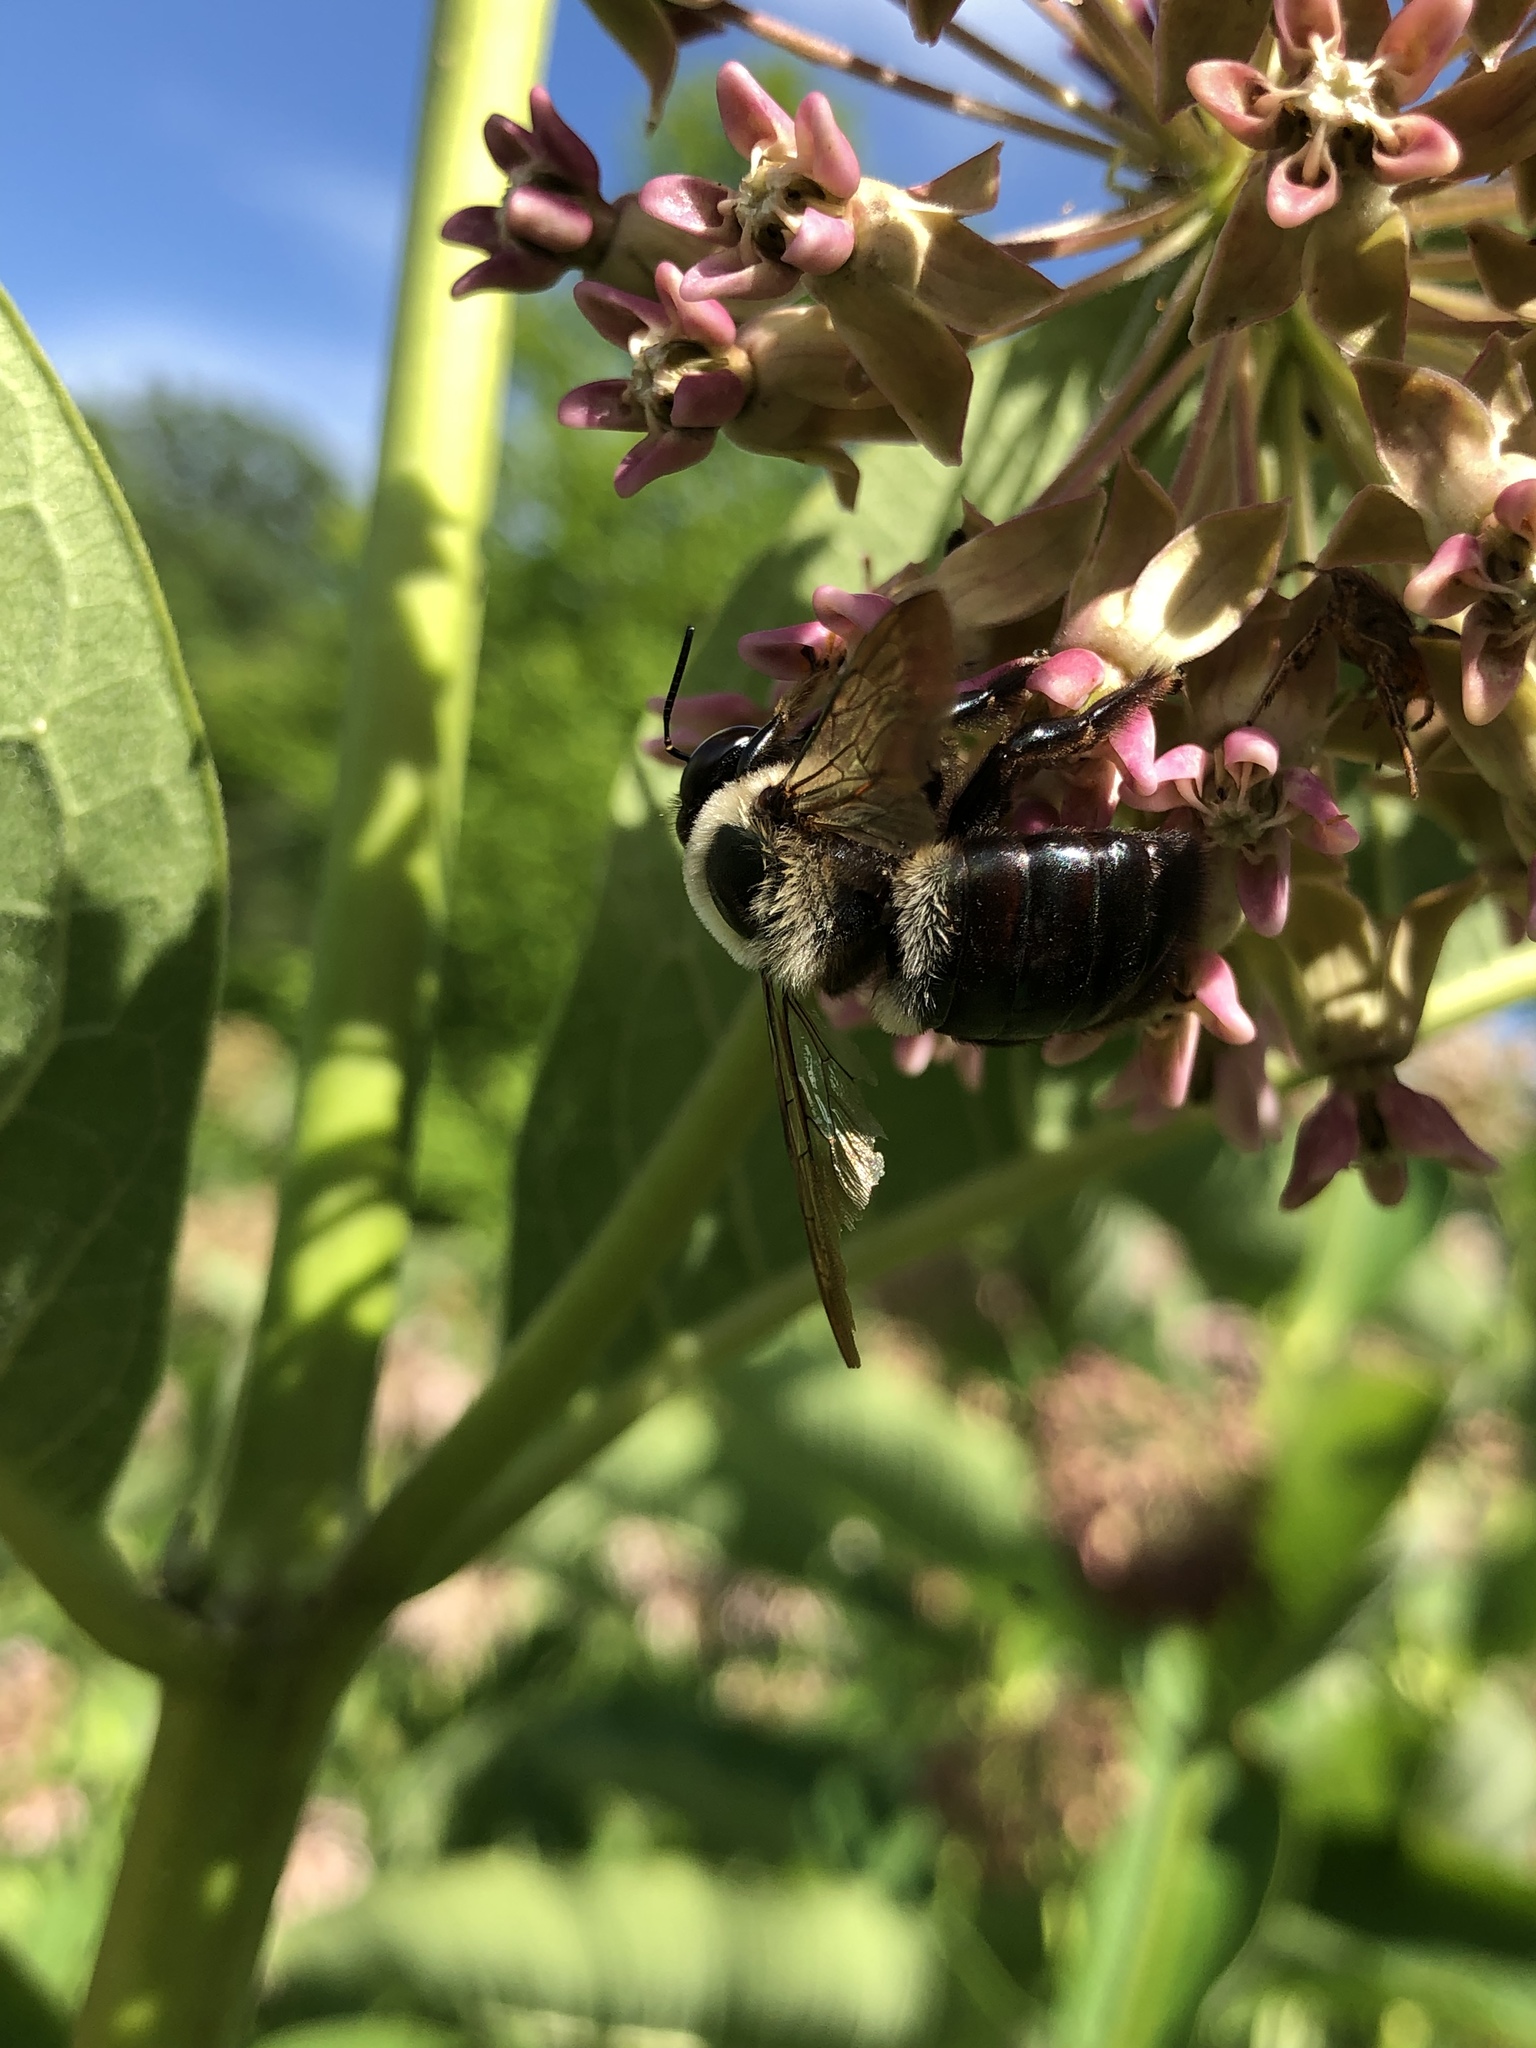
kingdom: Animalia
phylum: Arthropoda
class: Insecta
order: Hymenoptera
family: Apidae
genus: Xylocopa
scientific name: Xylocopa virginica
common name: Carpenter bee
